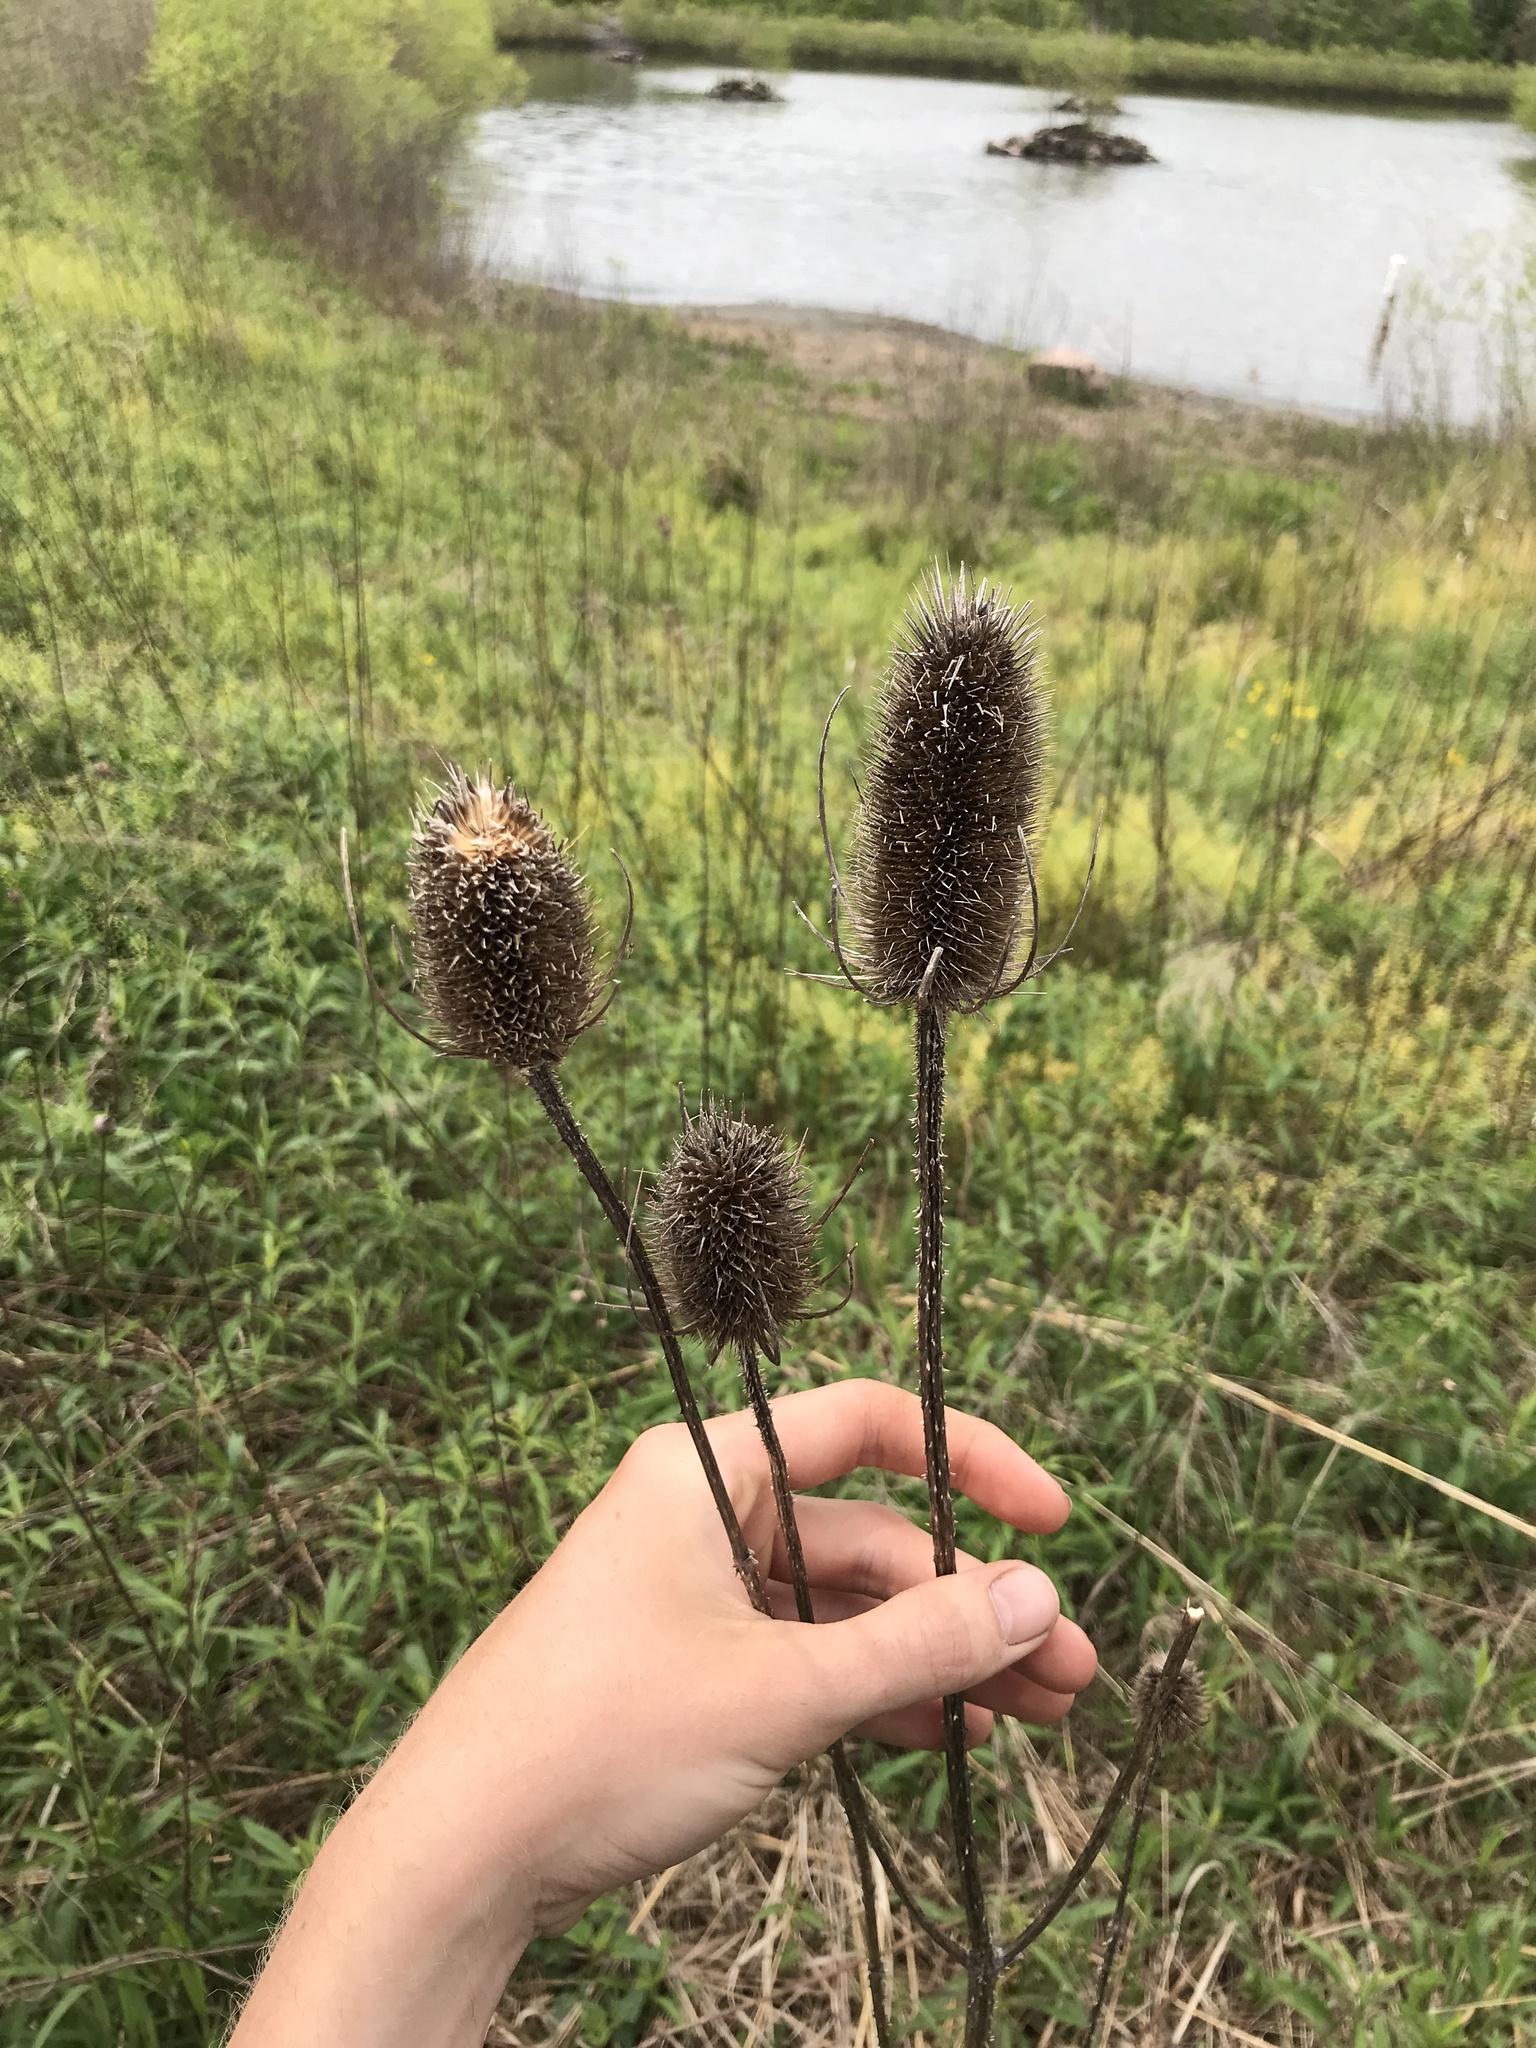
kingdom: Plantae
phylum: Tracheophyta
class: Magnoliopsida
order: Dipsacales
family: Caprifoliaceae
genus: Dipsacus
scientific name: Dipsacus fullonum
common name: Teasel
